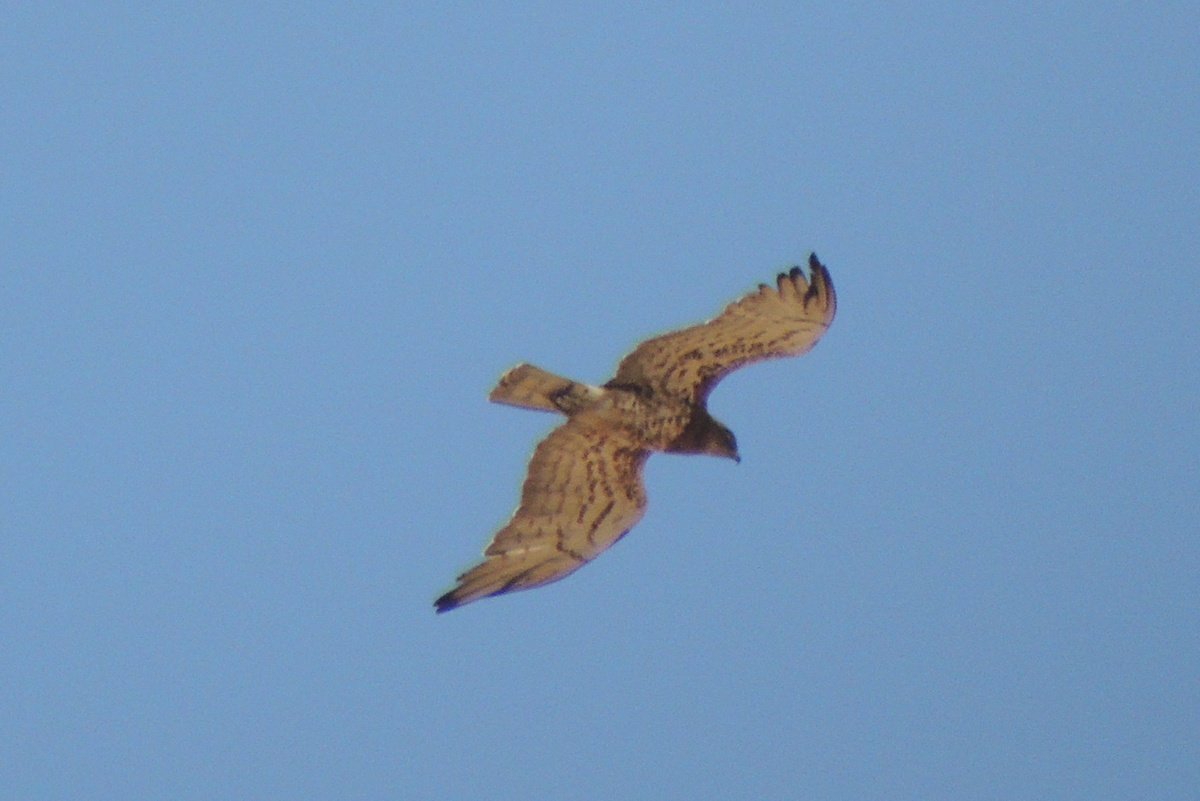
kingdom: Animalia
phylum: Chordata
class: Aves
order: Accipitriformes
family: Accipitridae
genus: Circaetus
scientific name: Circaetus gallicus
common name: Short-toed snake eagle
